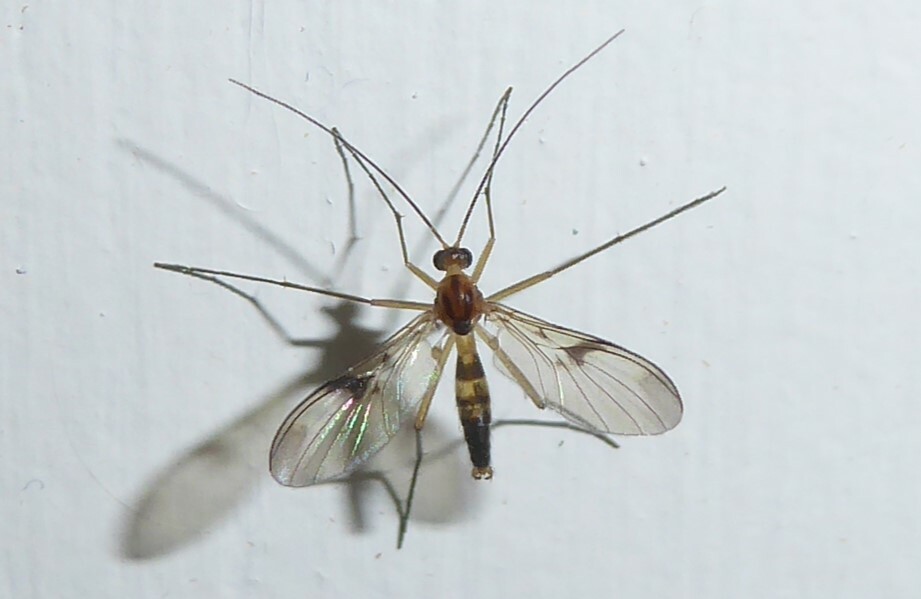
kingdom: Animalia
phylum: Arthropoda
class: Insecta
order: Diptera
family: Keroplatidae
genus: Macrocera
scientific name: Macrocera scoparia
